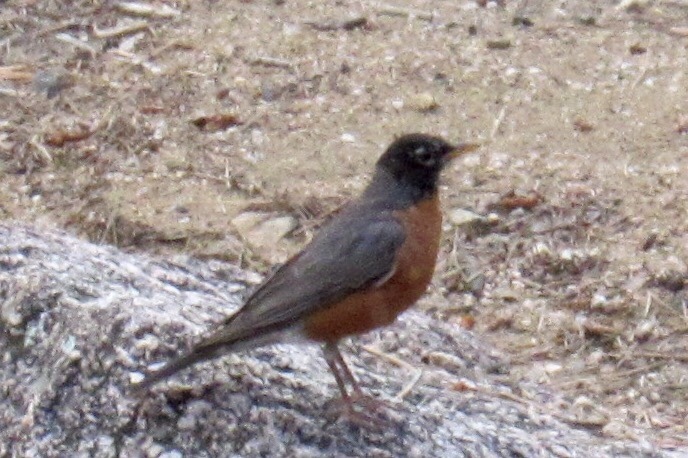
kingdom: Animalia
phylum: Chordata
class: Aves
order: Passeriformes
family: Turdidae
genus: Turdus
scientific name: Turdus migratorius
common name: American robin
